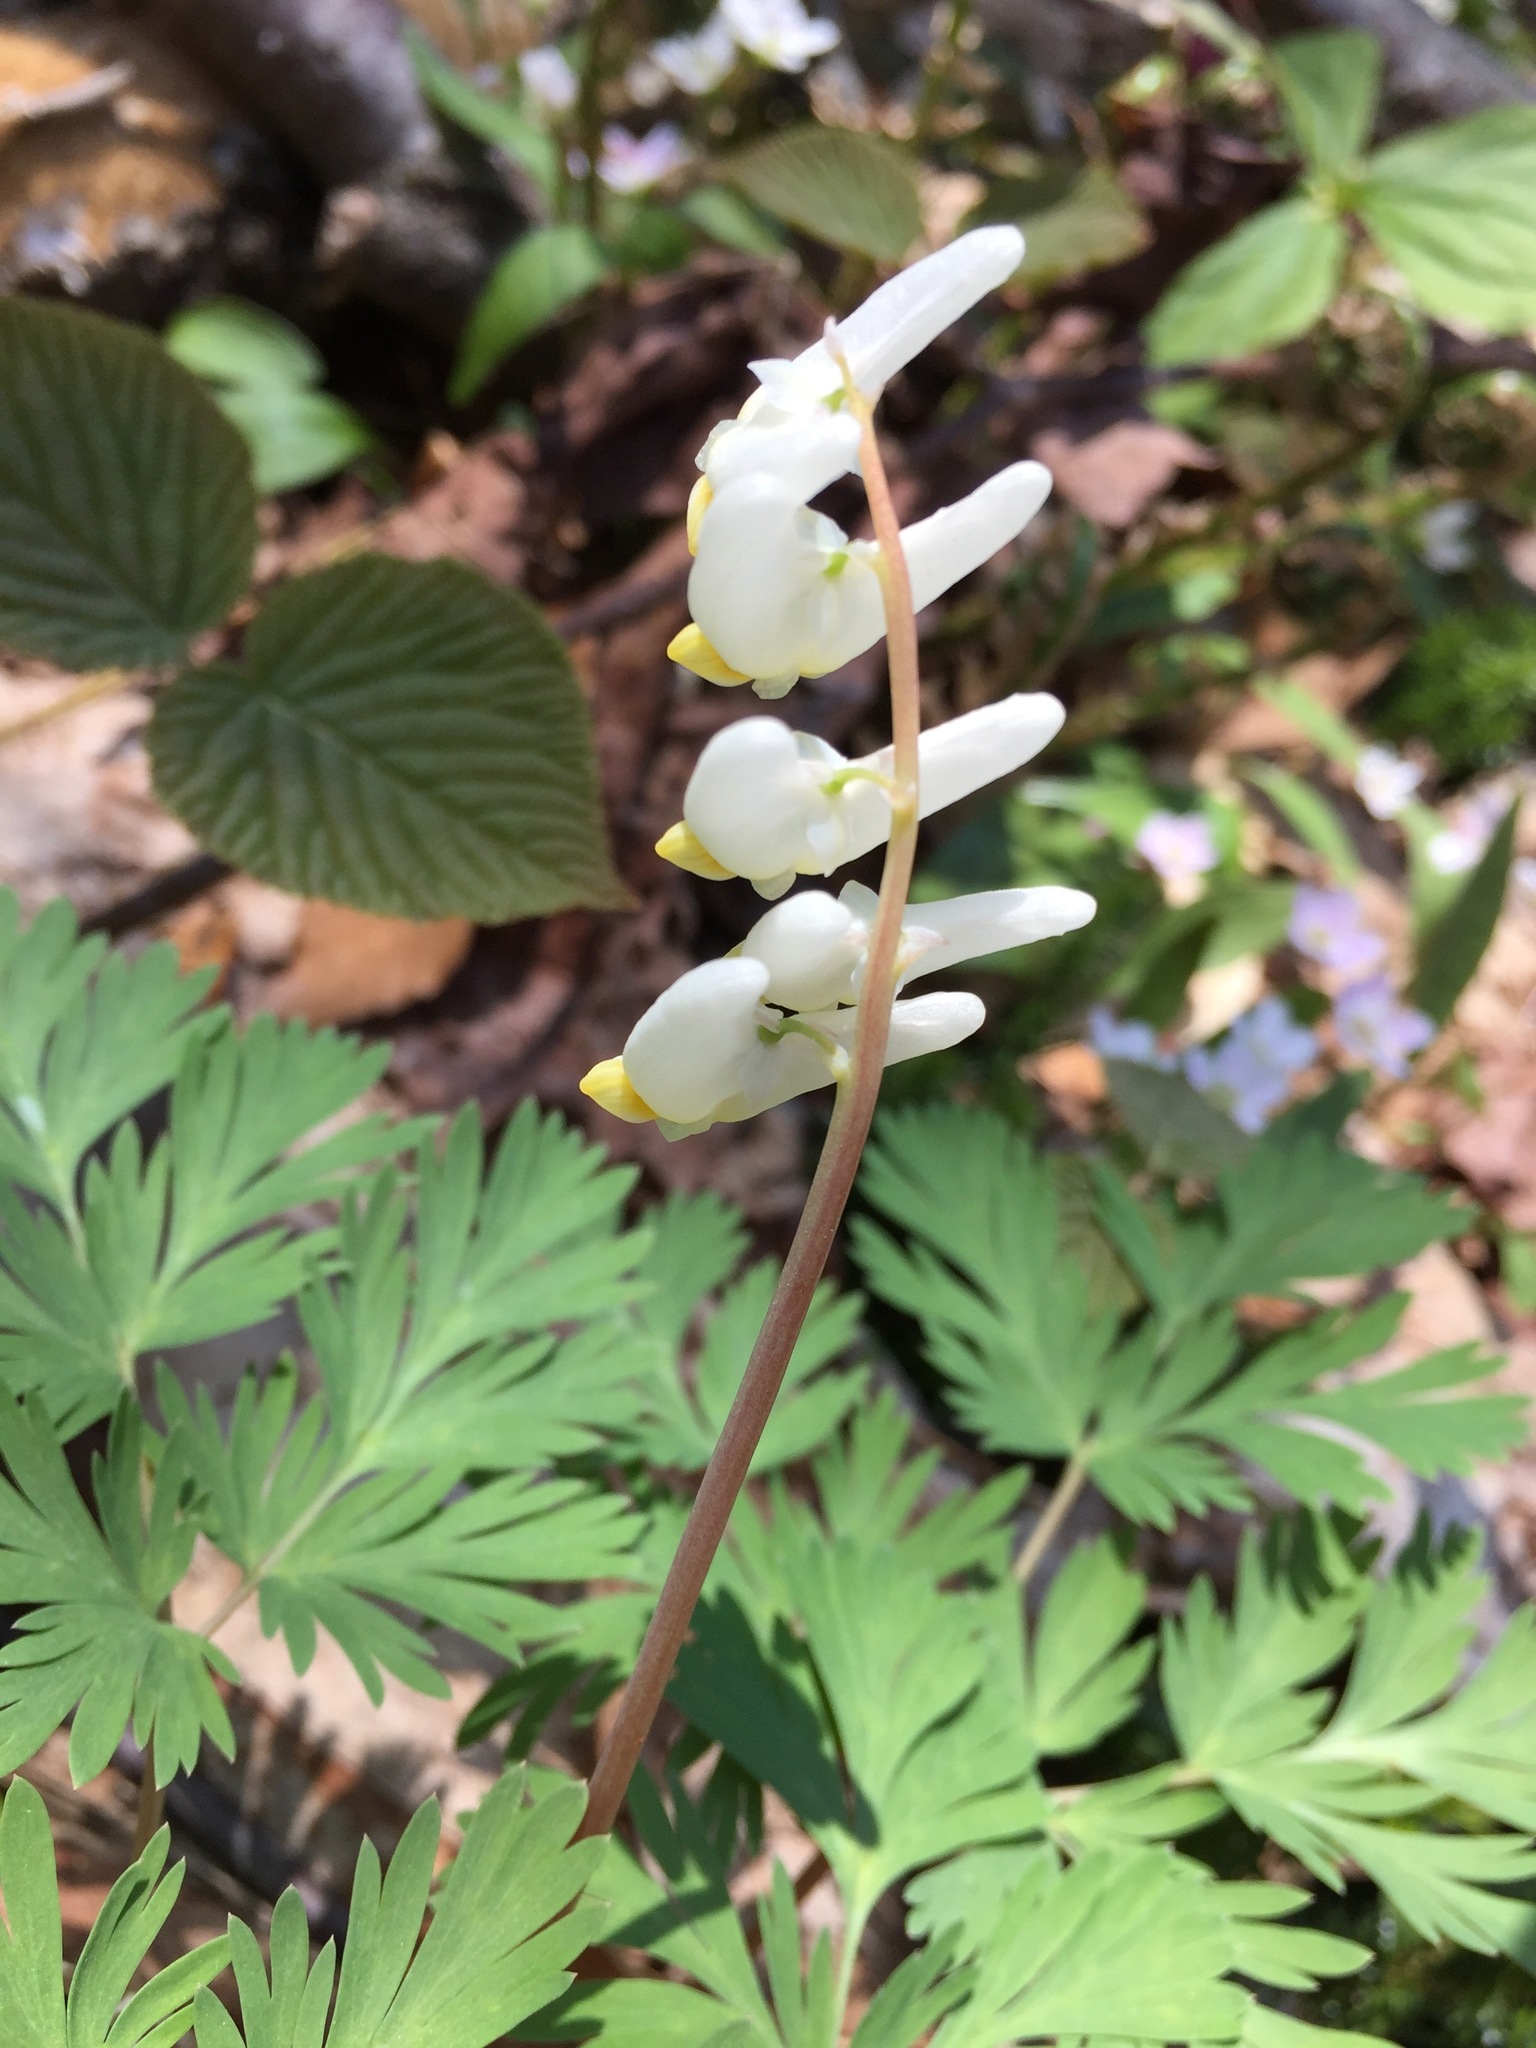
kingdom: Plantae
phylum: Tracheophyta
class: Magnoliopsida
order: Ranunculales
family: Papaveraceae
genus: Dicentra
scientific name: Dicentra cucullaria
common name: Dutchman's breeches
